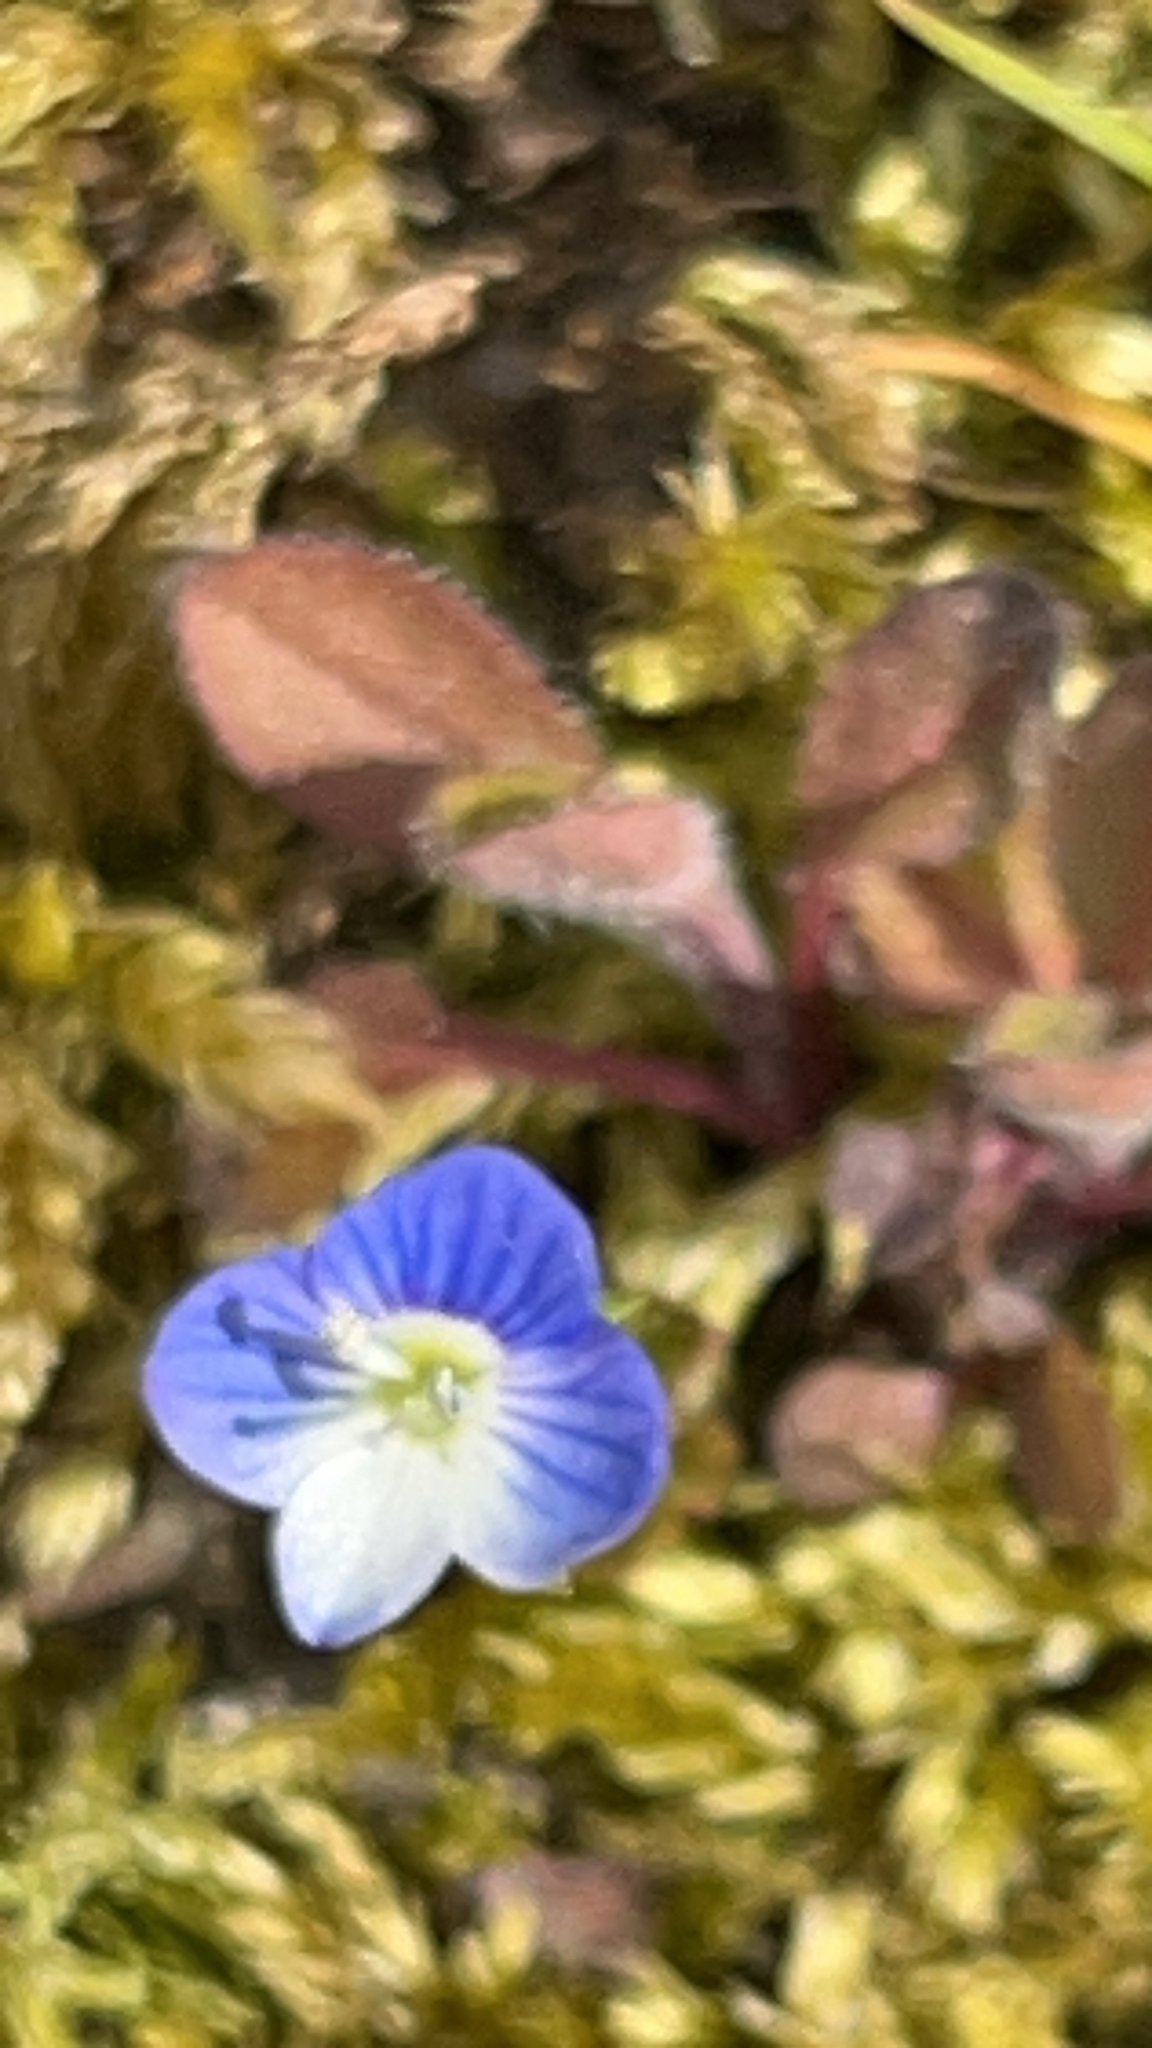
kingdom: Plantae
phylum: Tracheophyta
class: Magnoliopsida
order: Lamiales
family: Plantaginaceae
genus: Veronica
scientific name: Veronica persica
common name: Common field-speedwell
